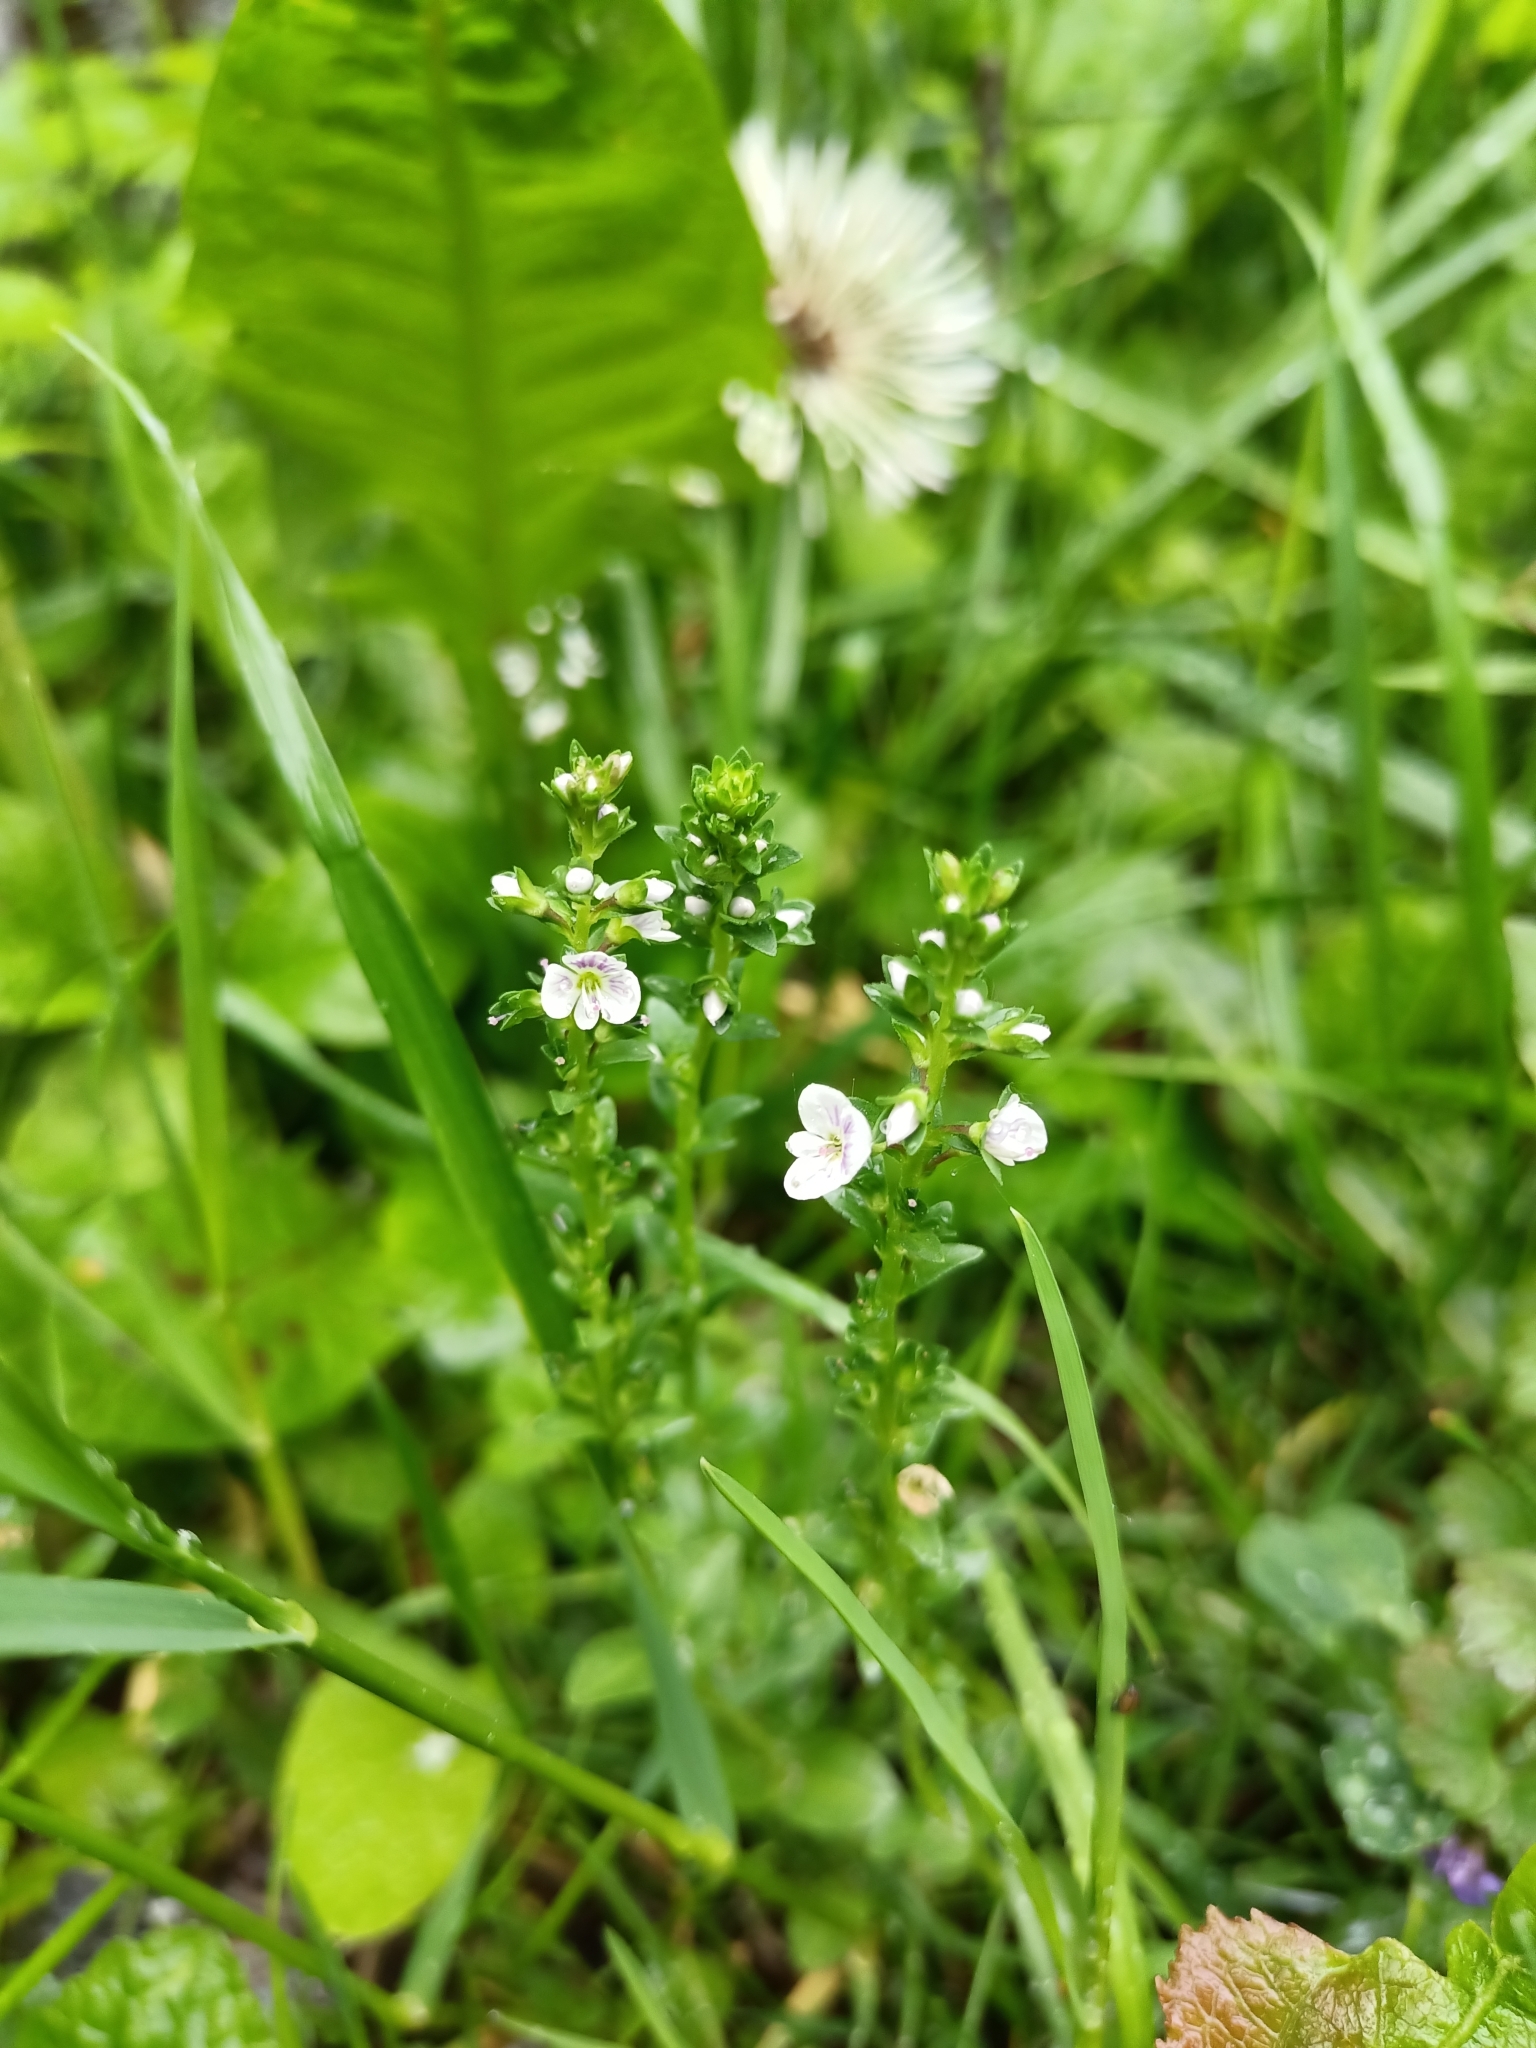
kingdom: Plantae
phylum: Tracheophyta
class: Magnoliopsida
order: Lamiales
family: Plantaginaceae
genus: Veronica
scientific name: Veronica serpyllifolia
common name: Thyme-leaved speedwell
